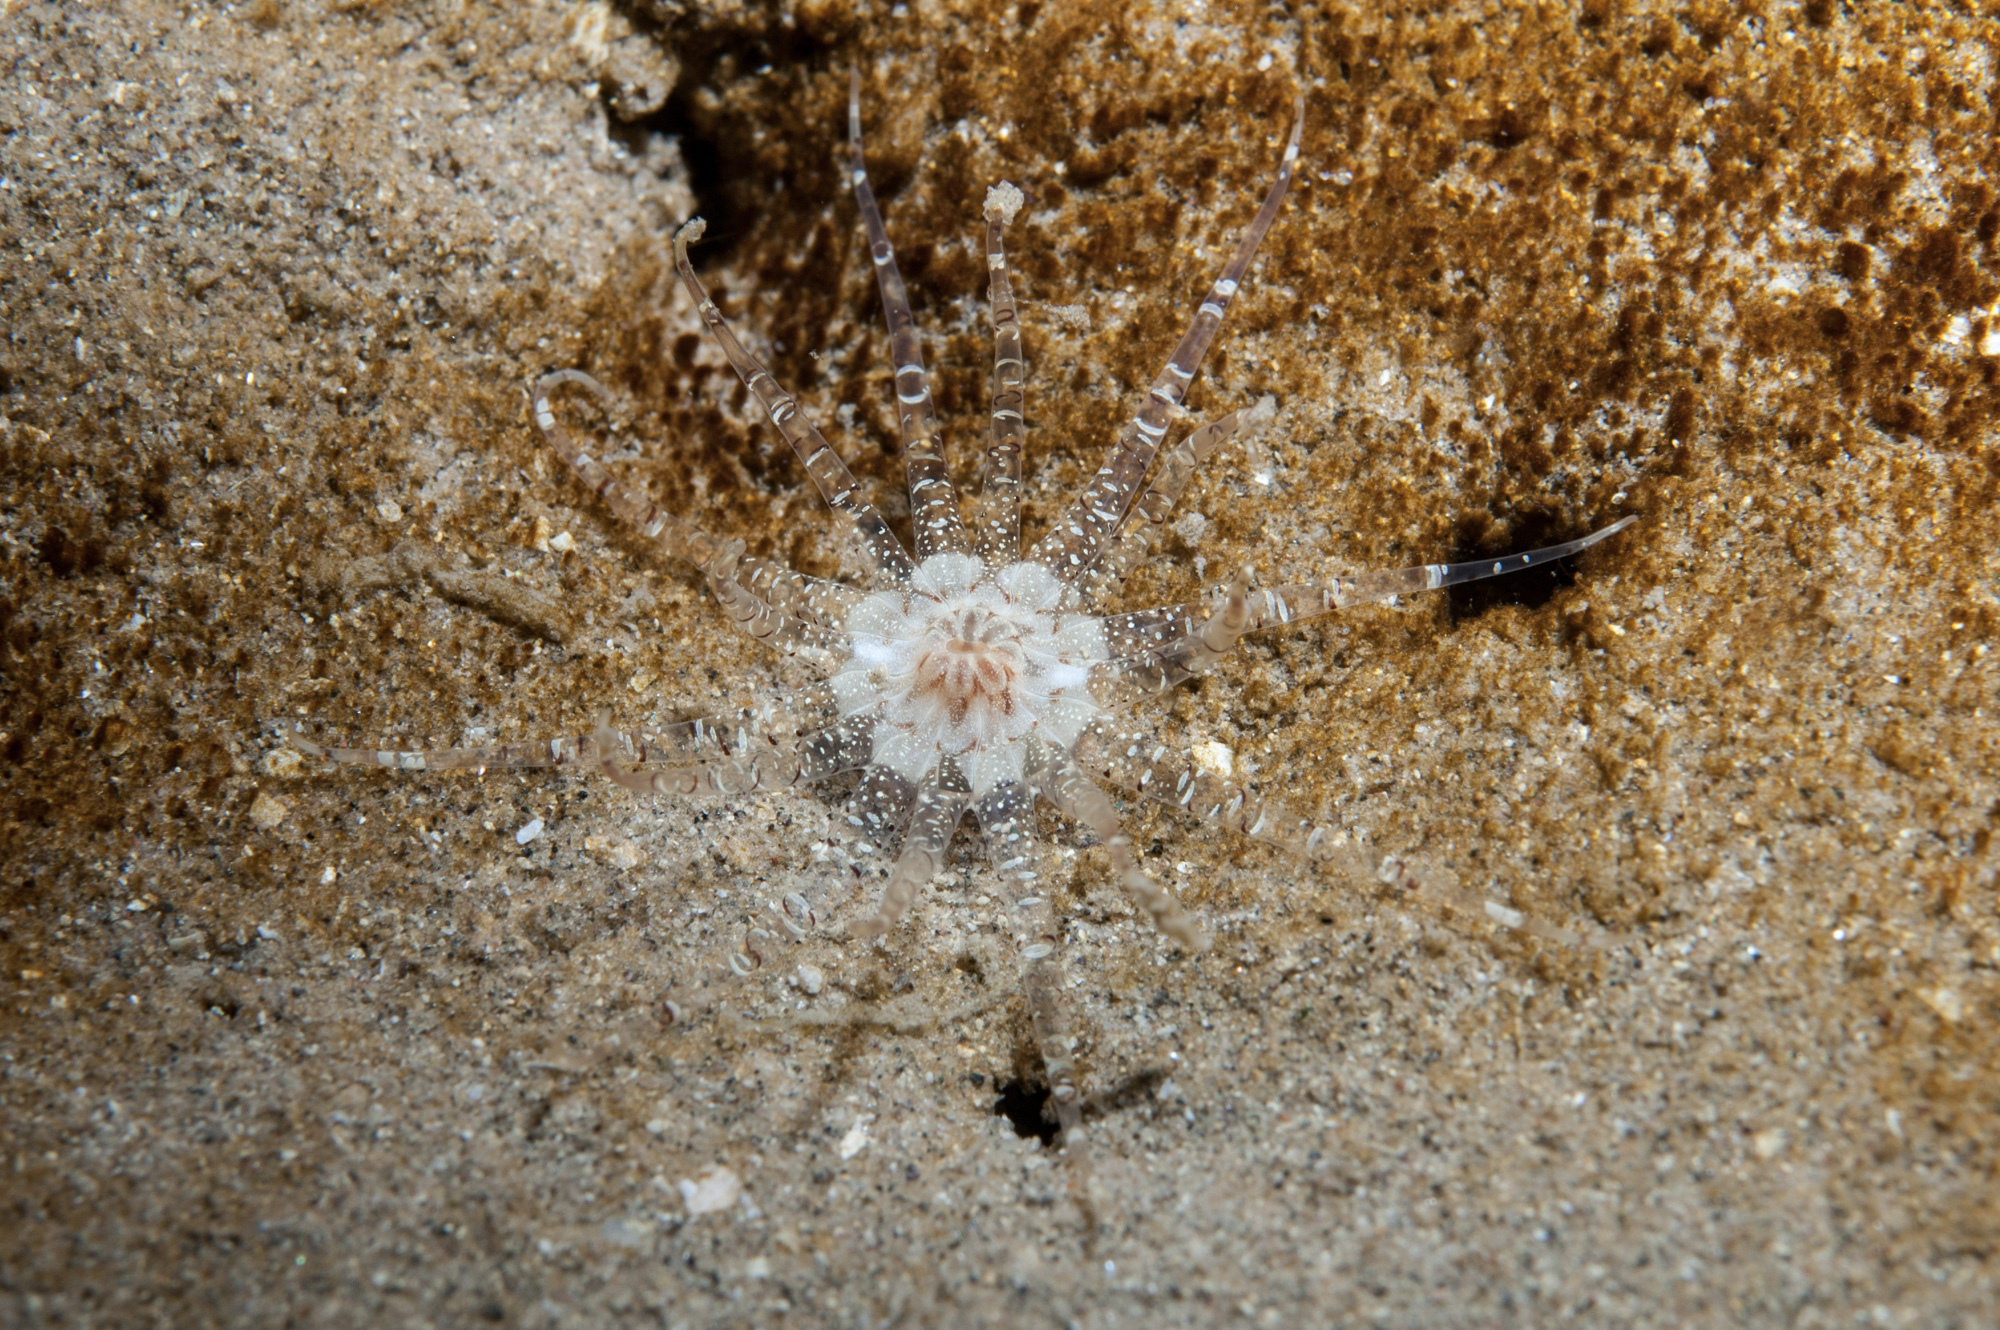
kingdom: Animalia
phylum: Cnidaria
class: Anthozoa
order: Actiniaria
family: Edwardsiidae
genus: Edwardsia
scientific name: Edwardsia claparedii
